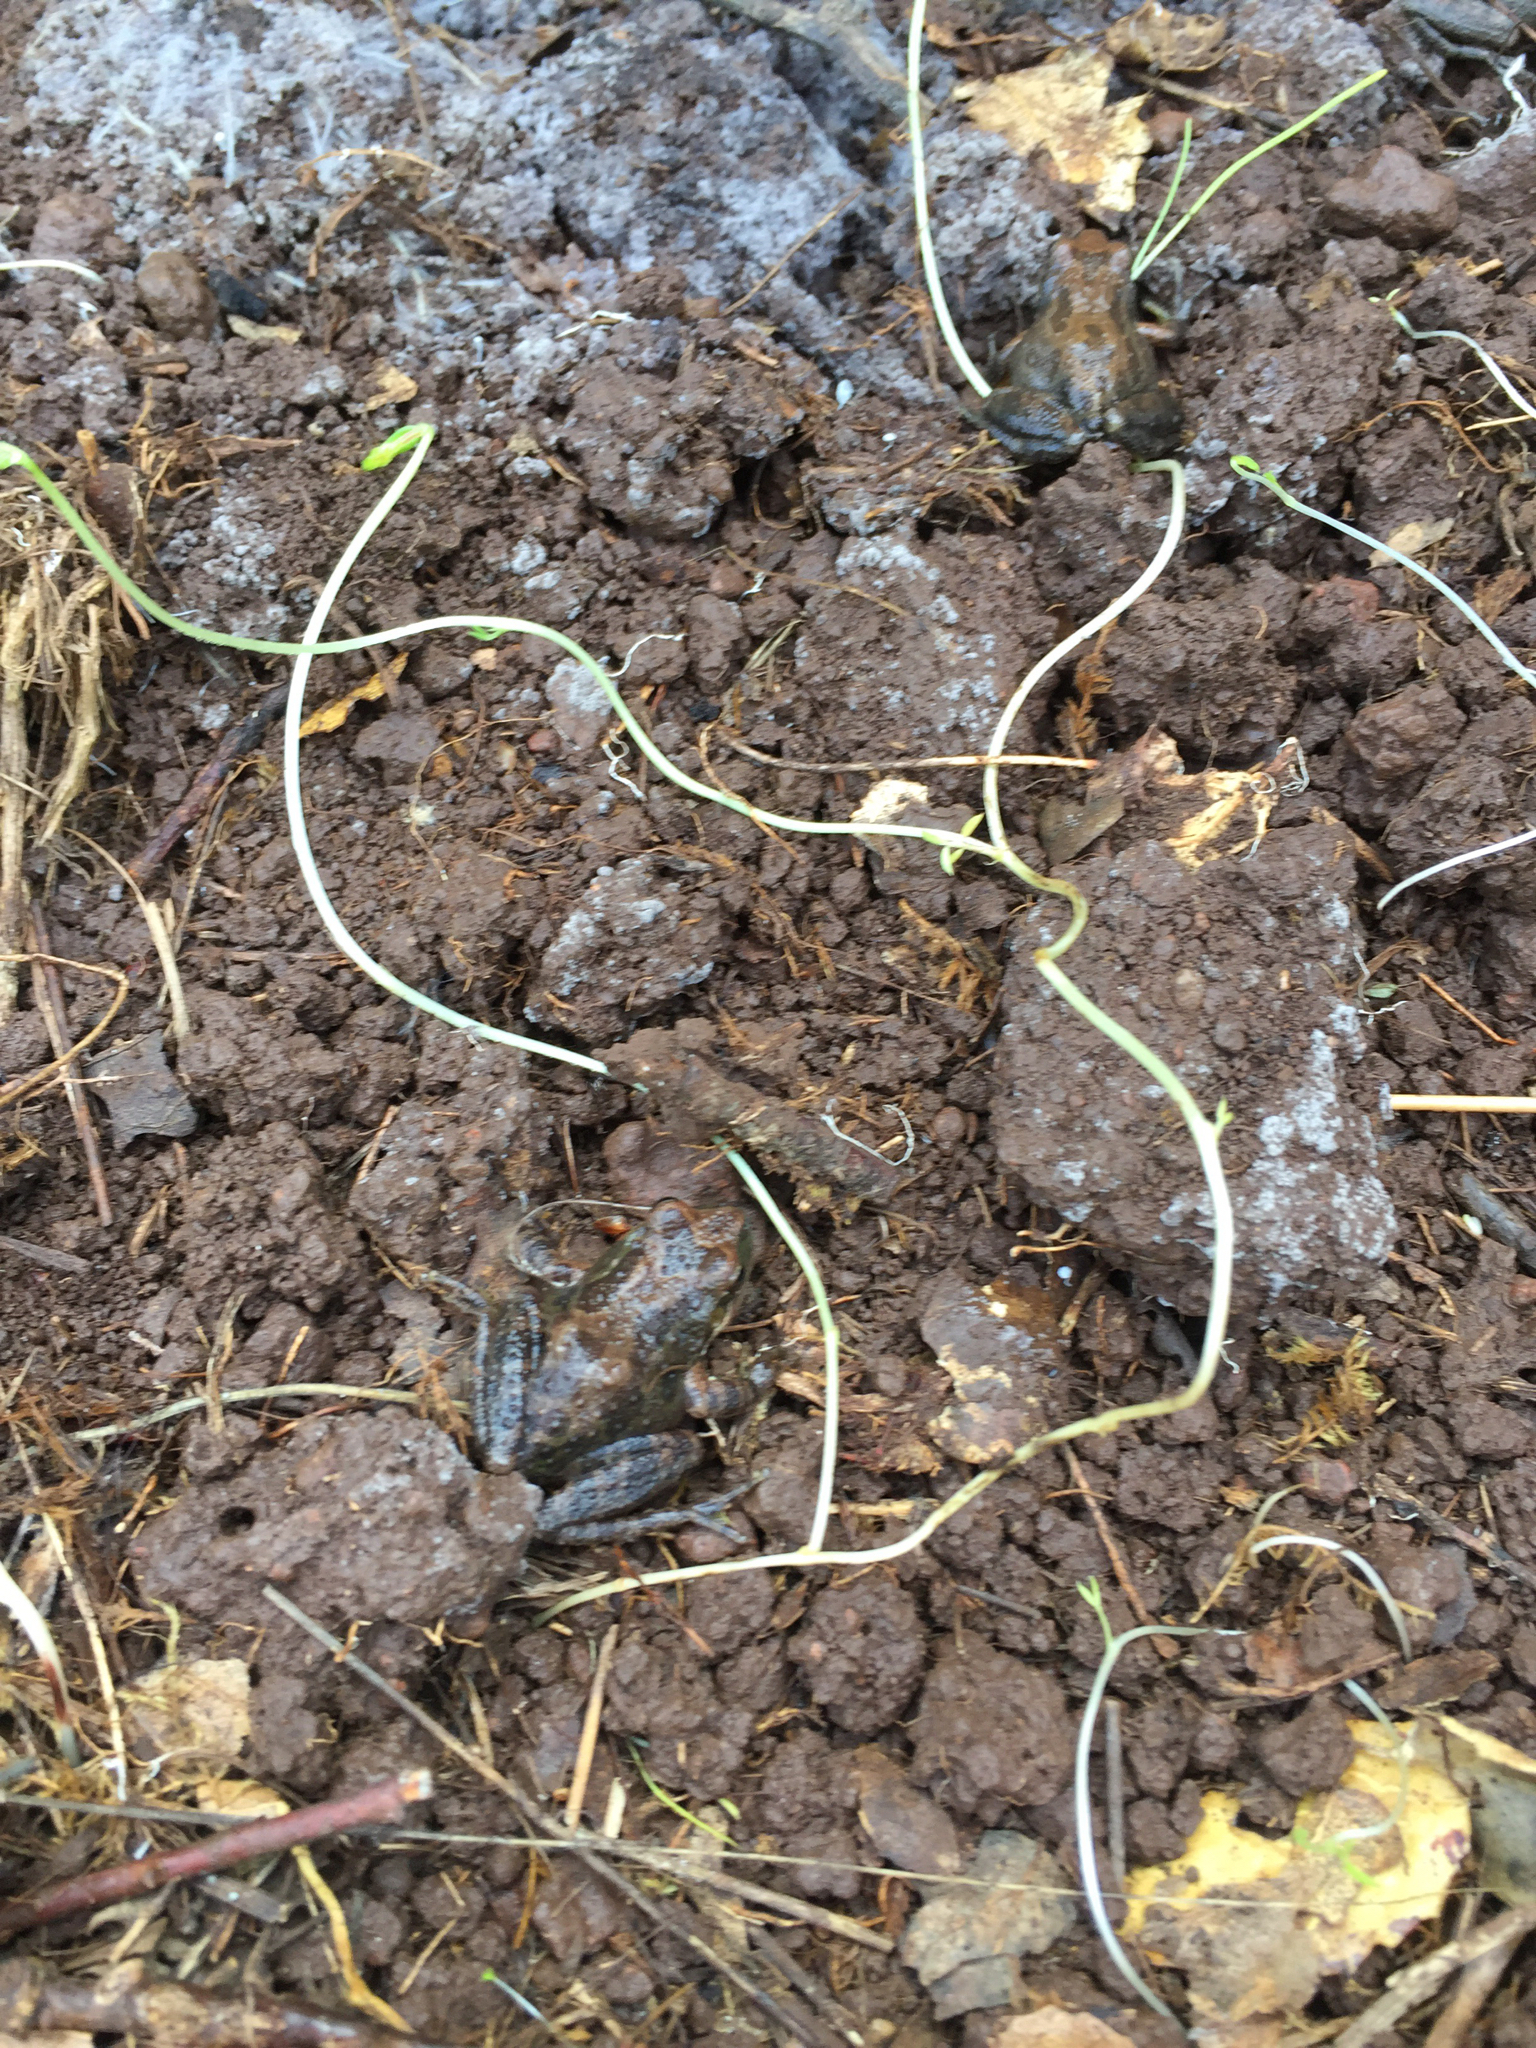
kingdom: Animalia
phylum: Chordata
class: Amphibia
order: Anura
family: Hylidae
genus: Pseudacris
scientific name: Pseudacris regilla
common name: Pacific chorus frog
